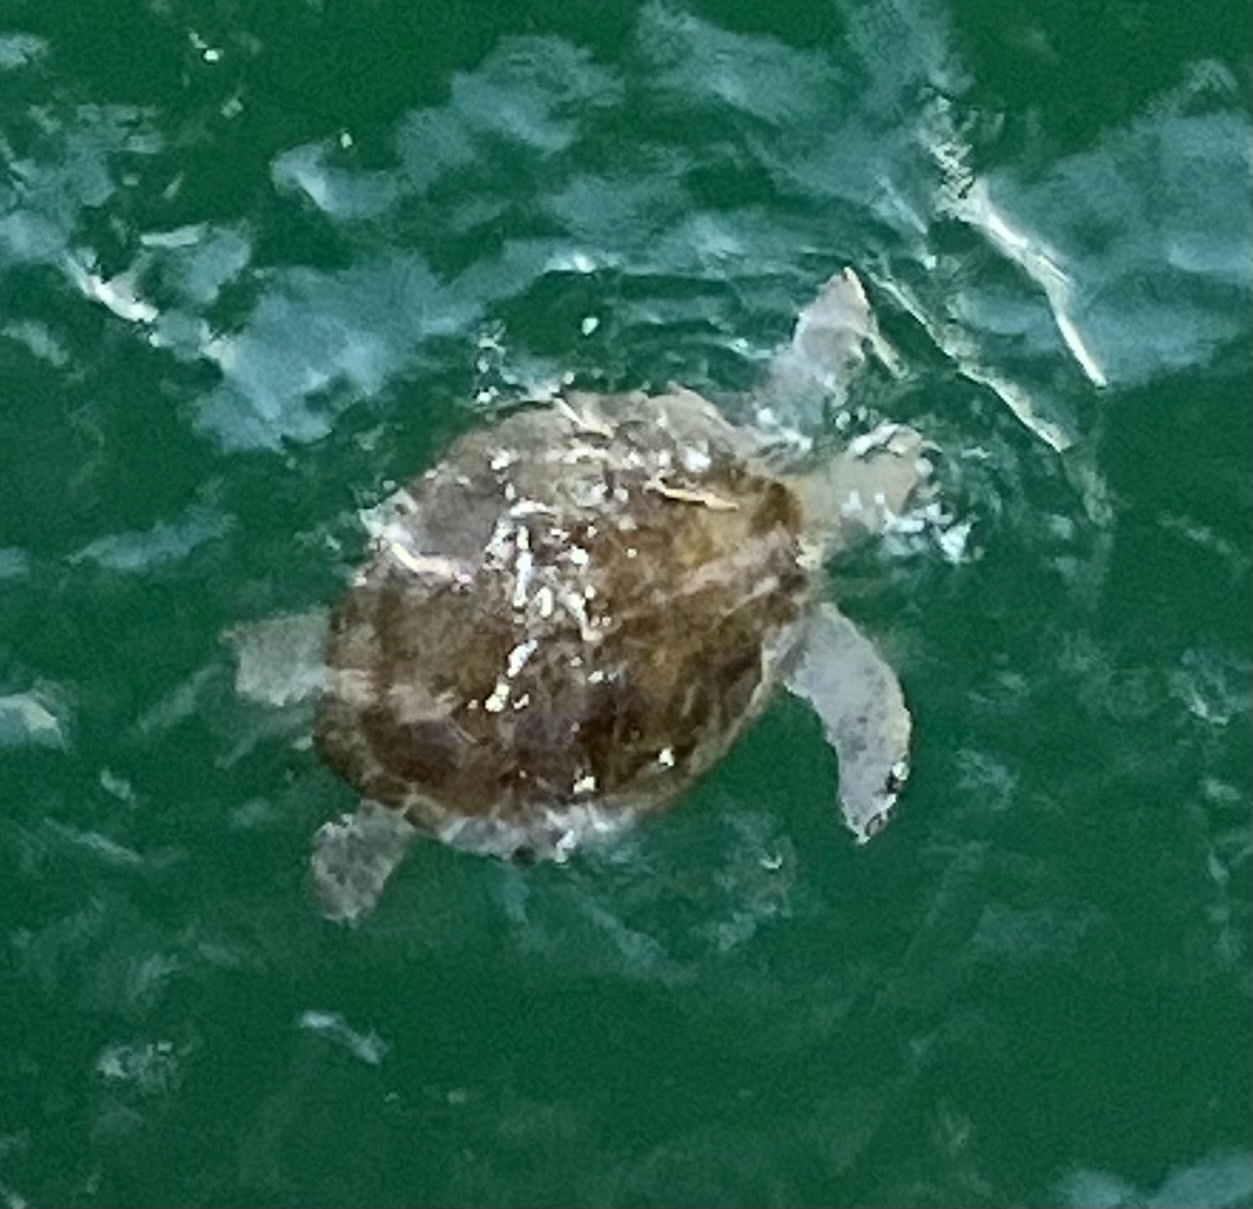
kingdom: Animalia
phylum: Chordata
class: Testudines
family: Cheloniidae
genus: Chelonia
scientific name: Chelonia mydas
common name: Green turtle
